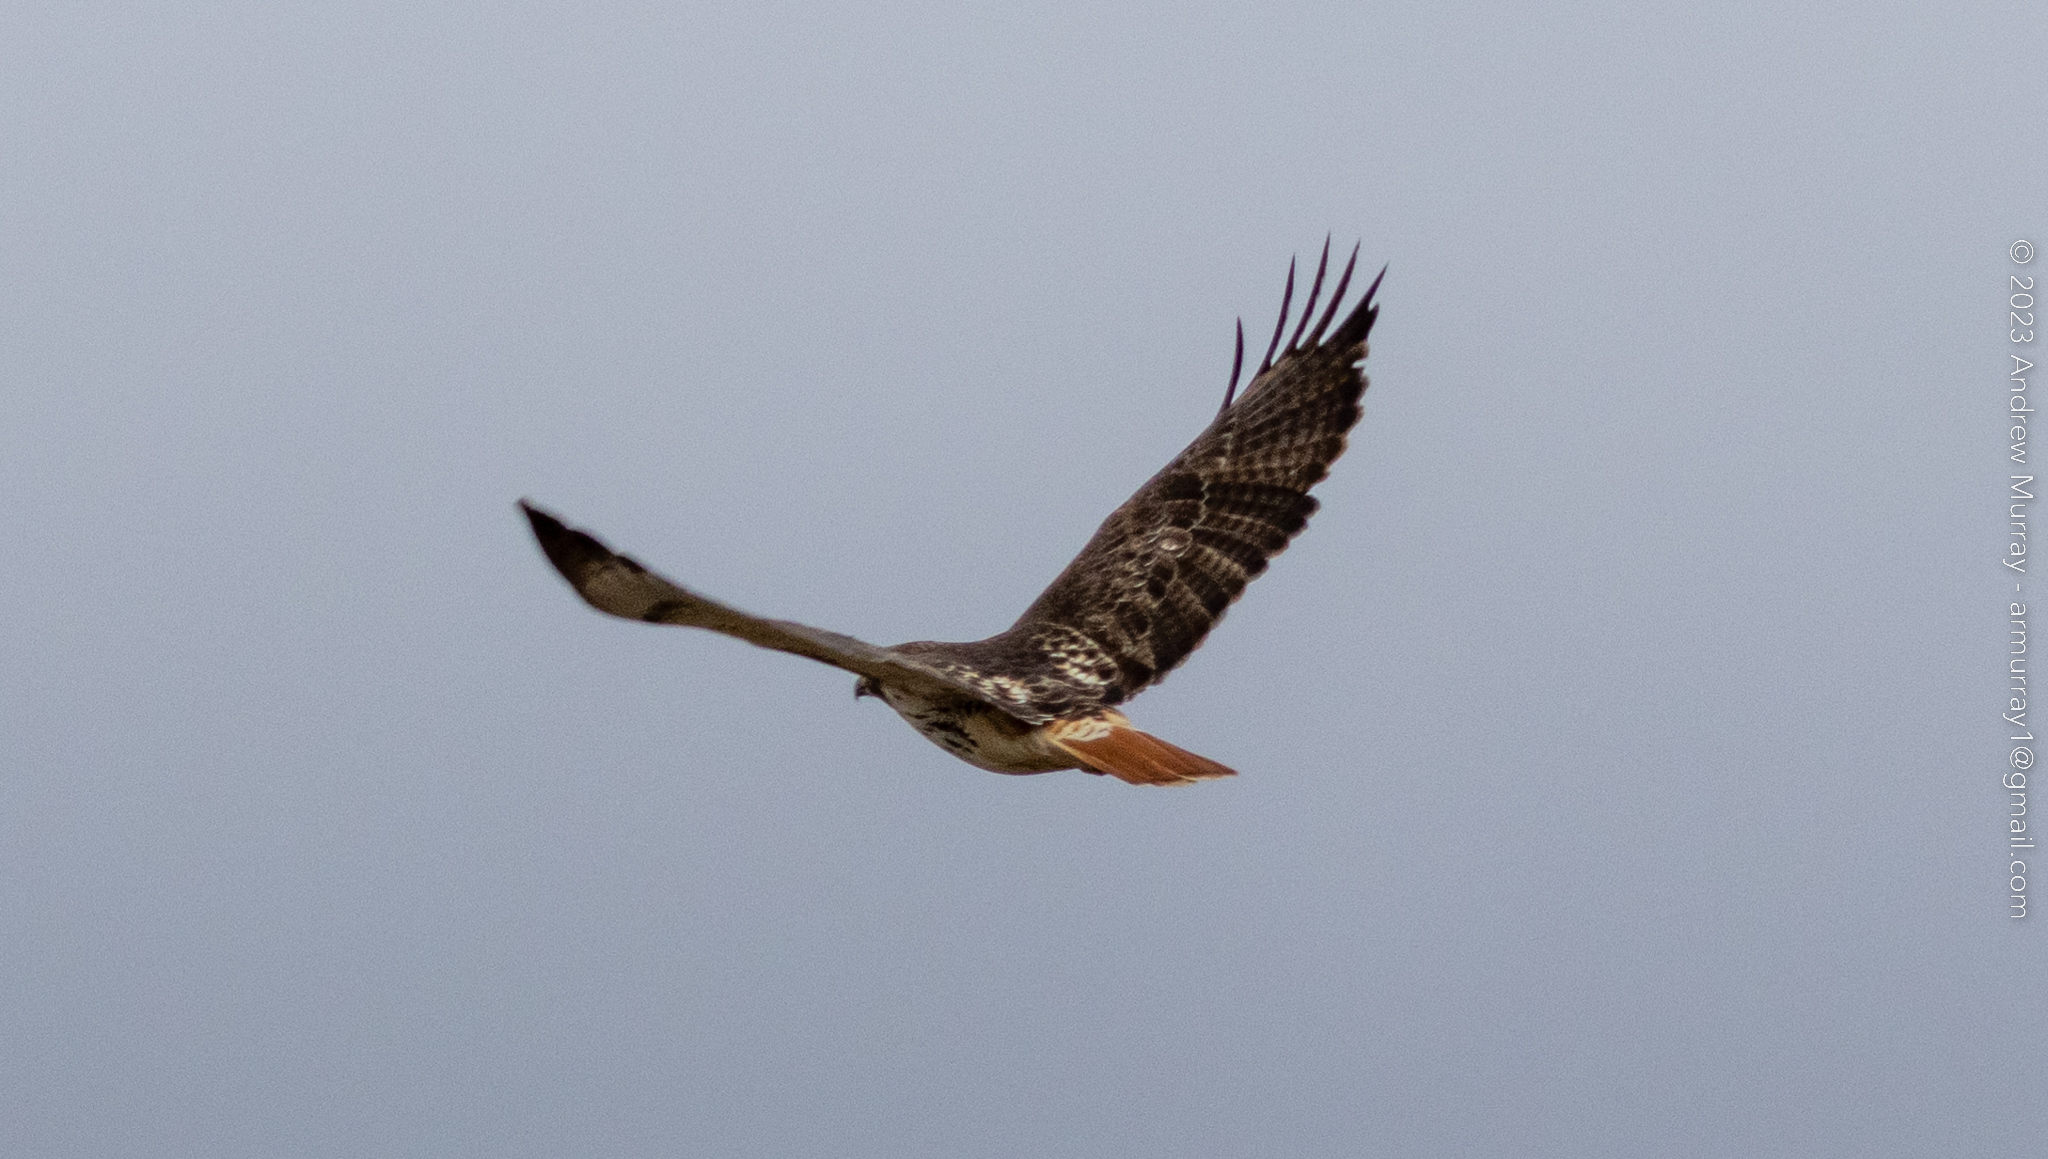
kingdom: Animalia
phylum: Chordata
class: Aves
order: Accipitriformes
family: Accipitridae
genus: Buteo
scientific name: Buteo jamaicensis
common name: Red-tailed hawk
